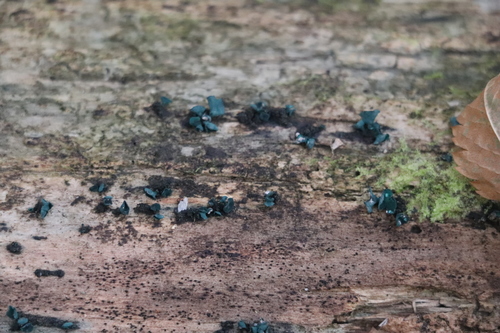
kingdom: Fungi
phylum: Ascomycota
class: Leotiomycetes
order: Helotiales
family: Chlorociboriaceae
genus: Chlorociboria
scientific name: Chlorociboria aeruginascens
